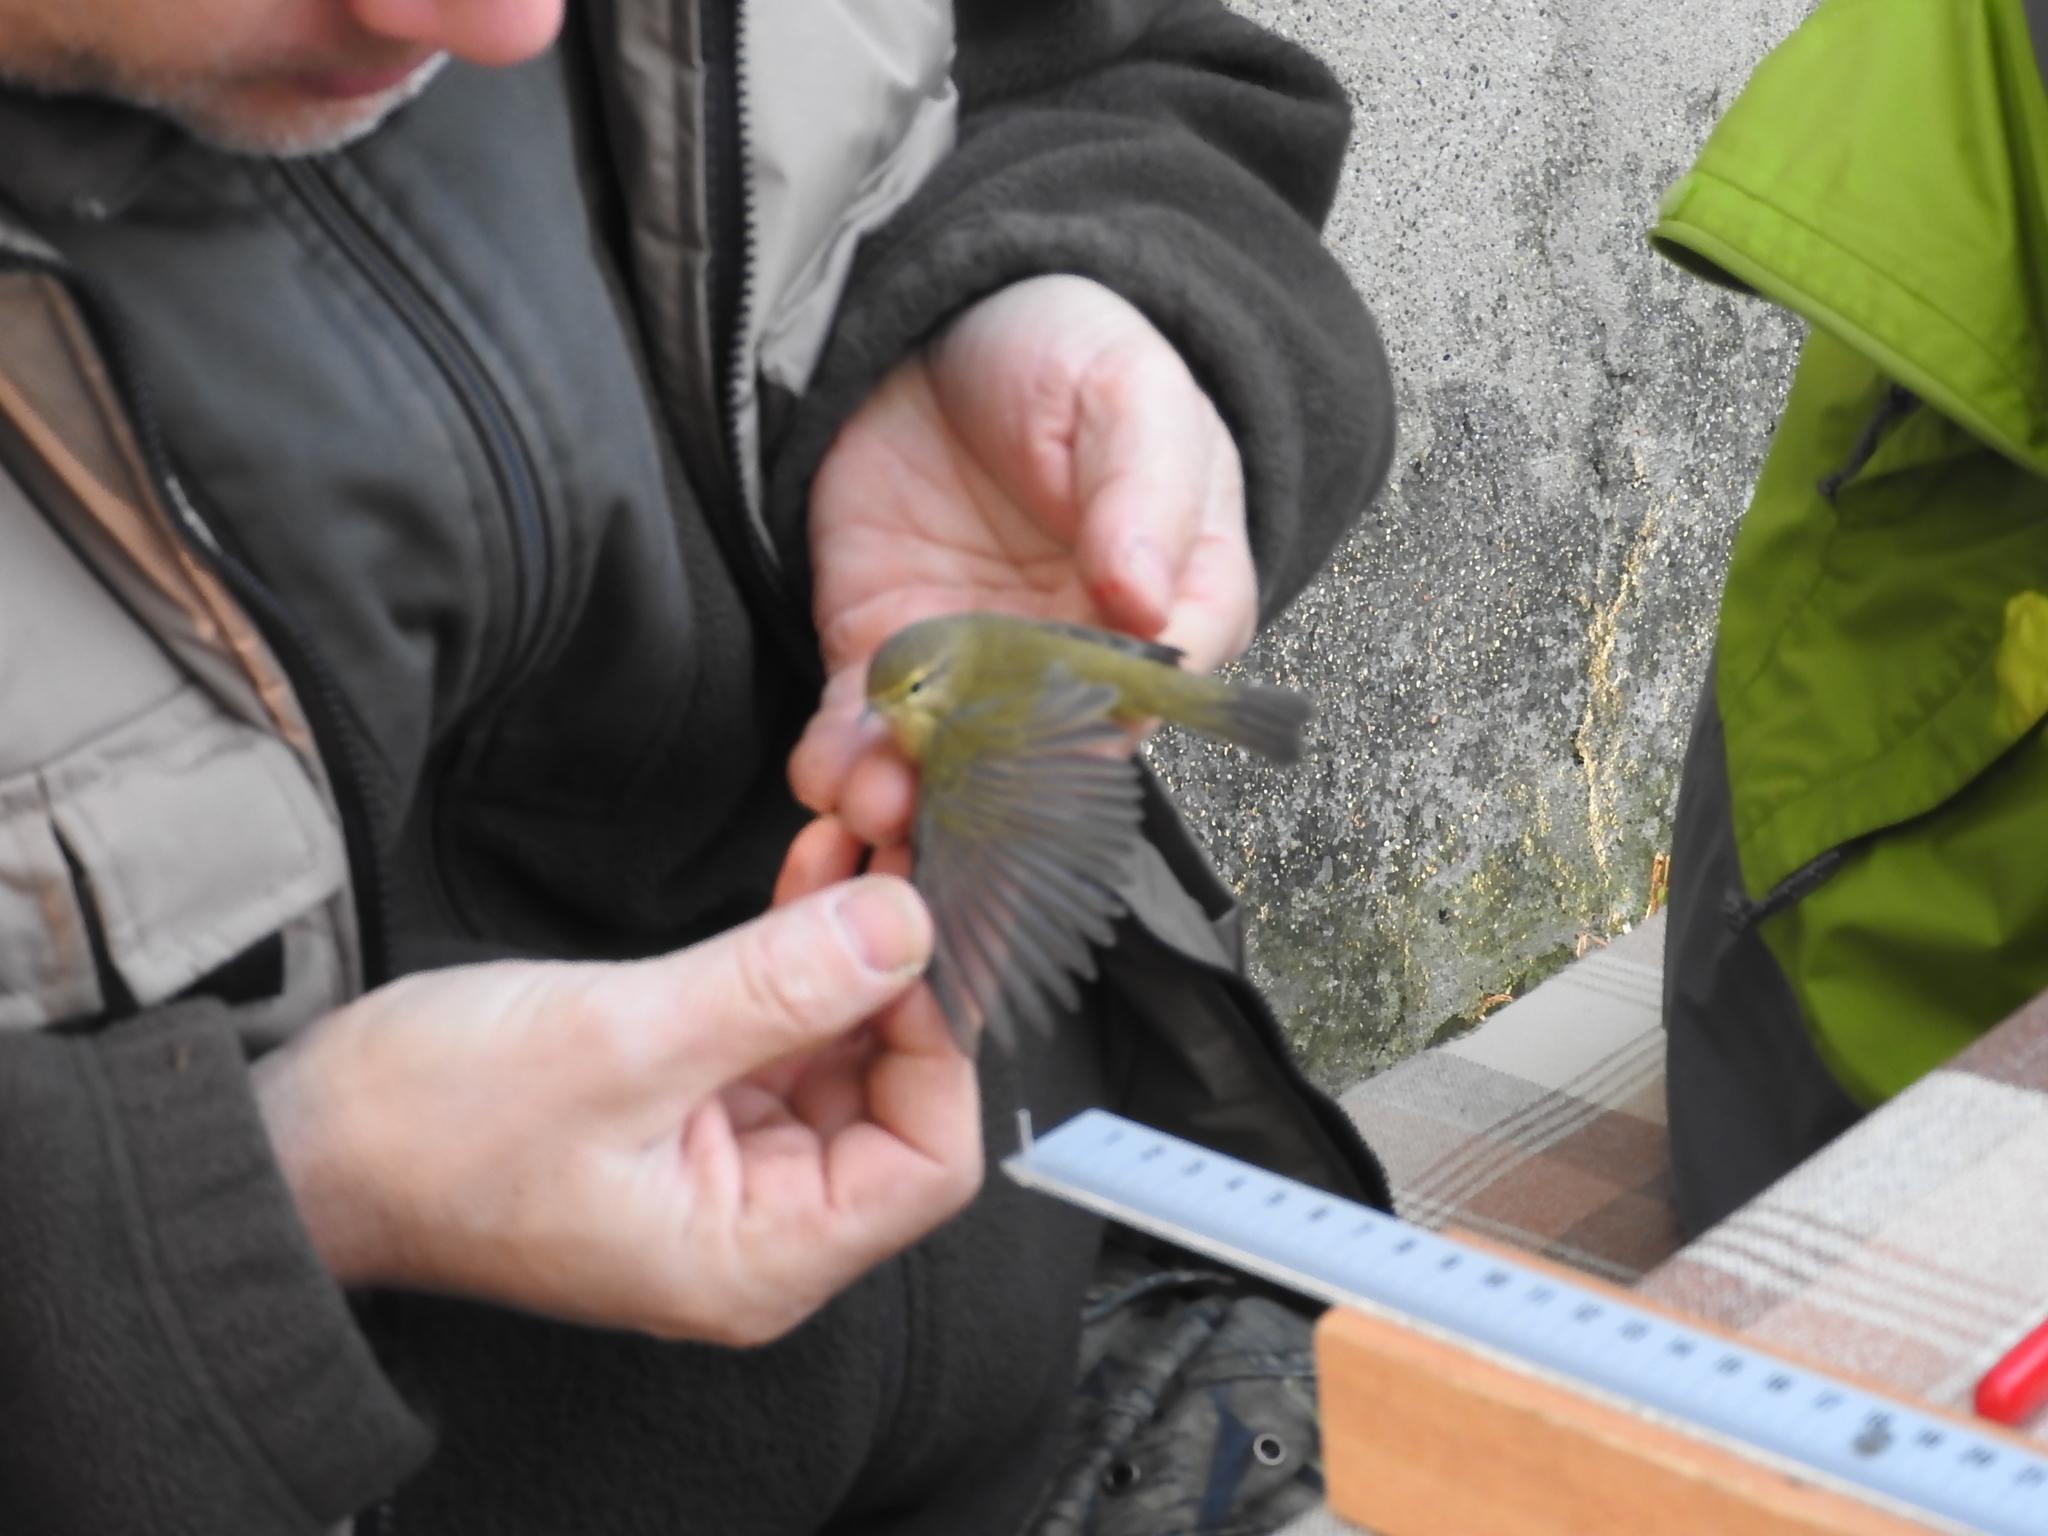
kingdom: Animalia
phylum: Chordata
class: Aves
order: Passeriformes
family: Phylloscopidae
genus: Phylloscopus
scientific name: Phylloscopus collybita
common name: Common chiffchaff
